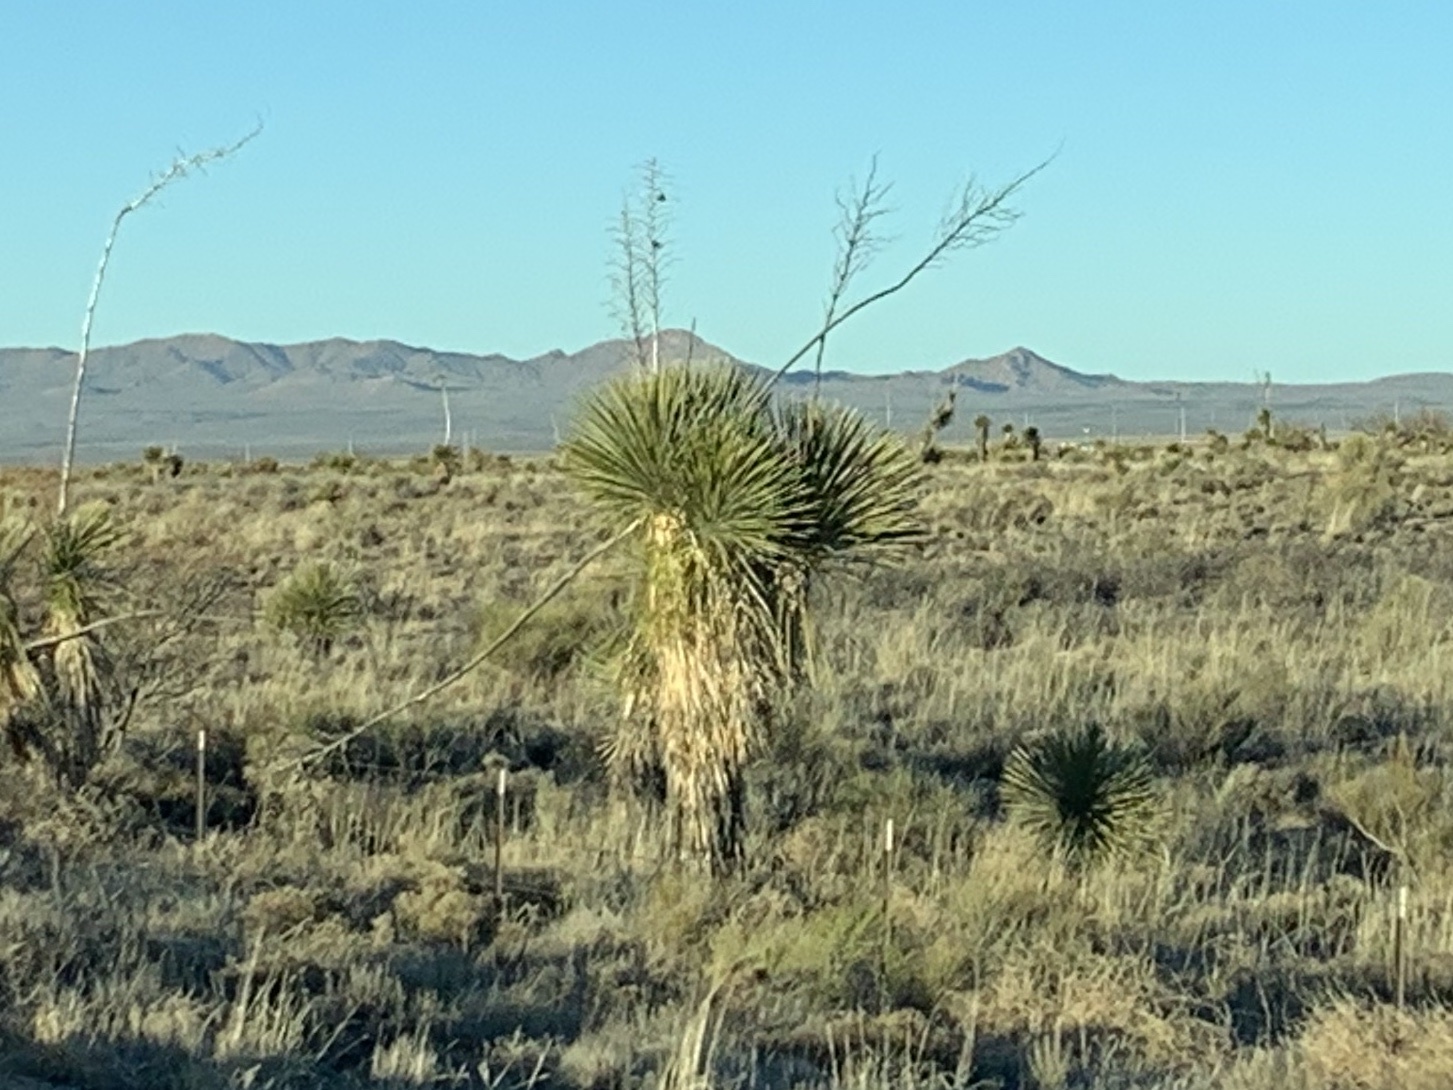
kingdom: Plantae
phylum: Tracheophyta
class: Liliopsida
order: Asparagales
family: Asparagaceae
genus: Yucca
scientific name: Yucca elata
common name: Palmella
